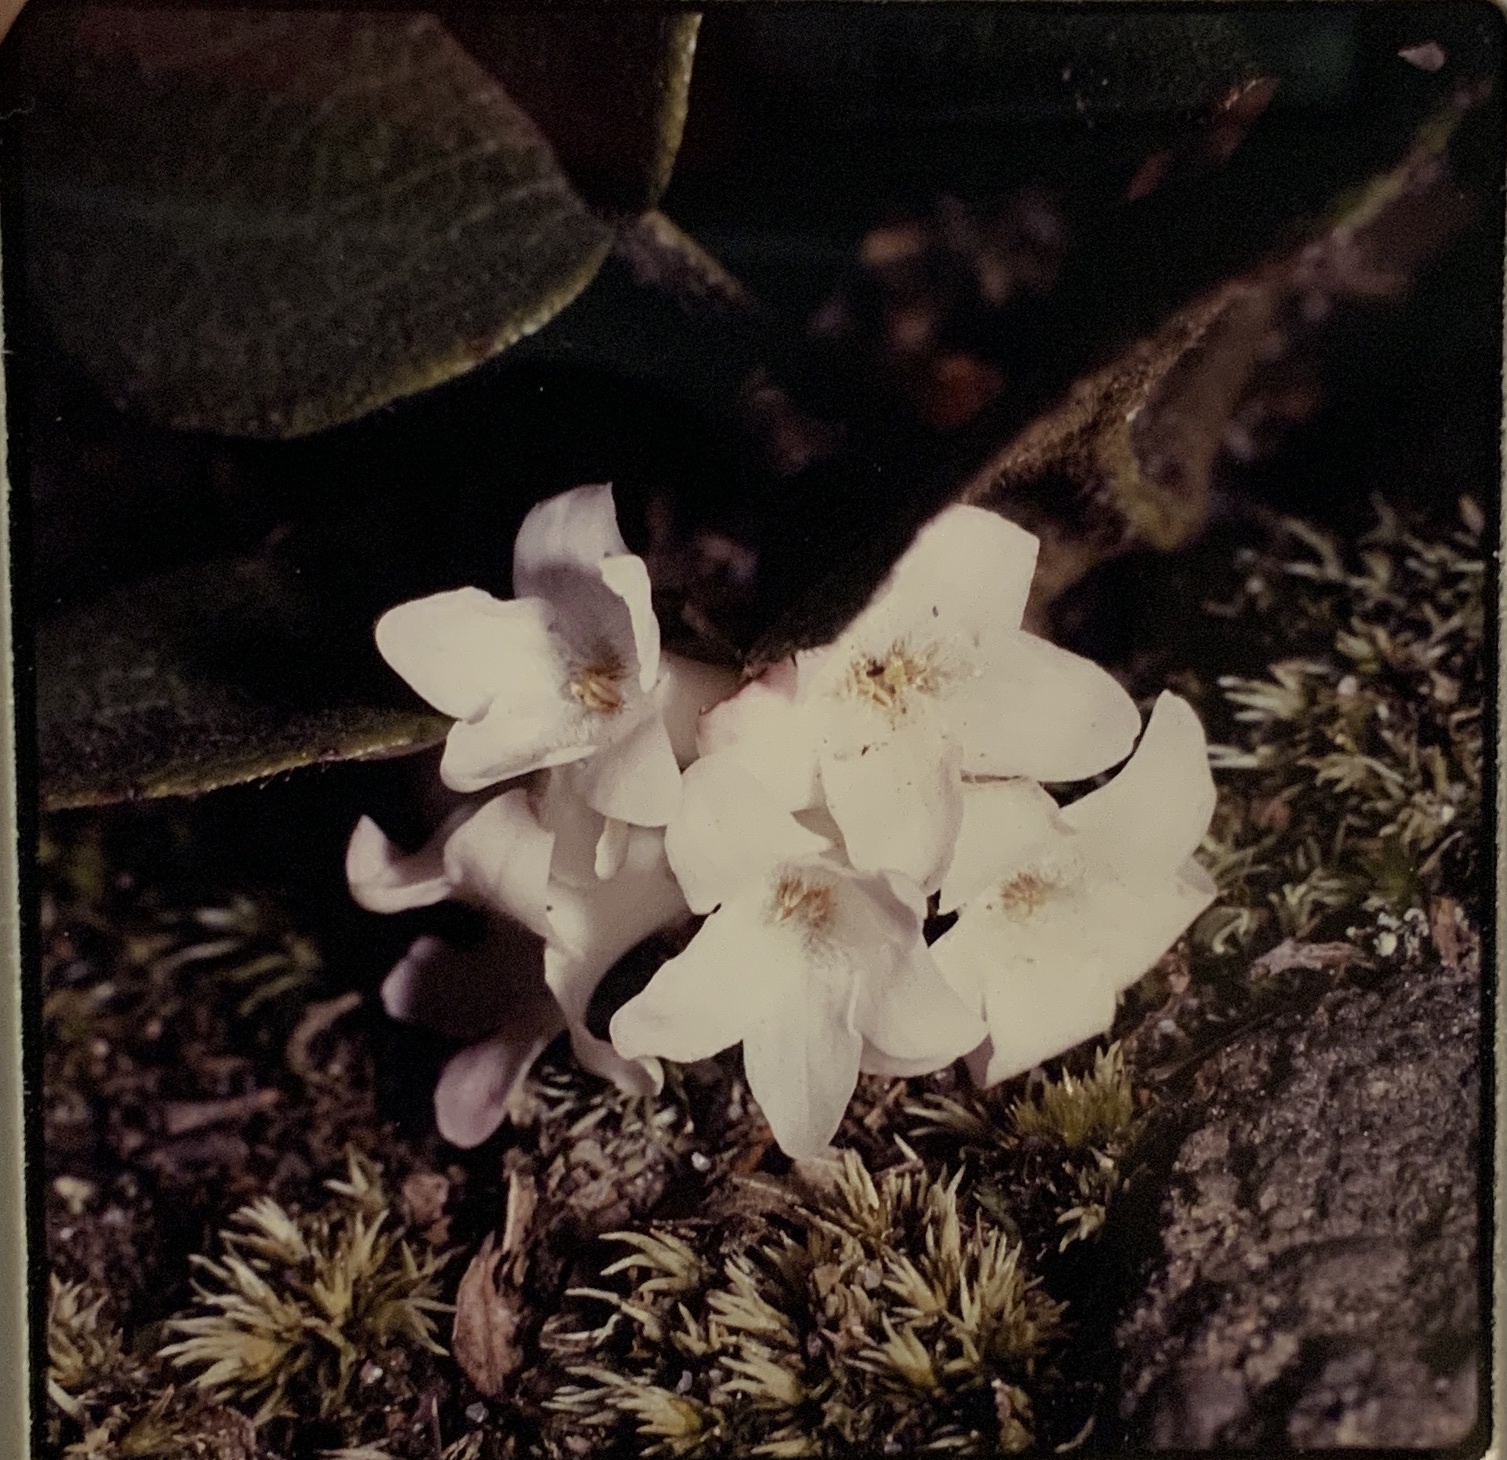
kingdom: Plantae
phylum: Tracheophyta
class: Magnoliopsida
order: Ericales
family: Ericaceae
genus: Epigaea
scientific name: Epigaea repens
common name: Gravelroot
